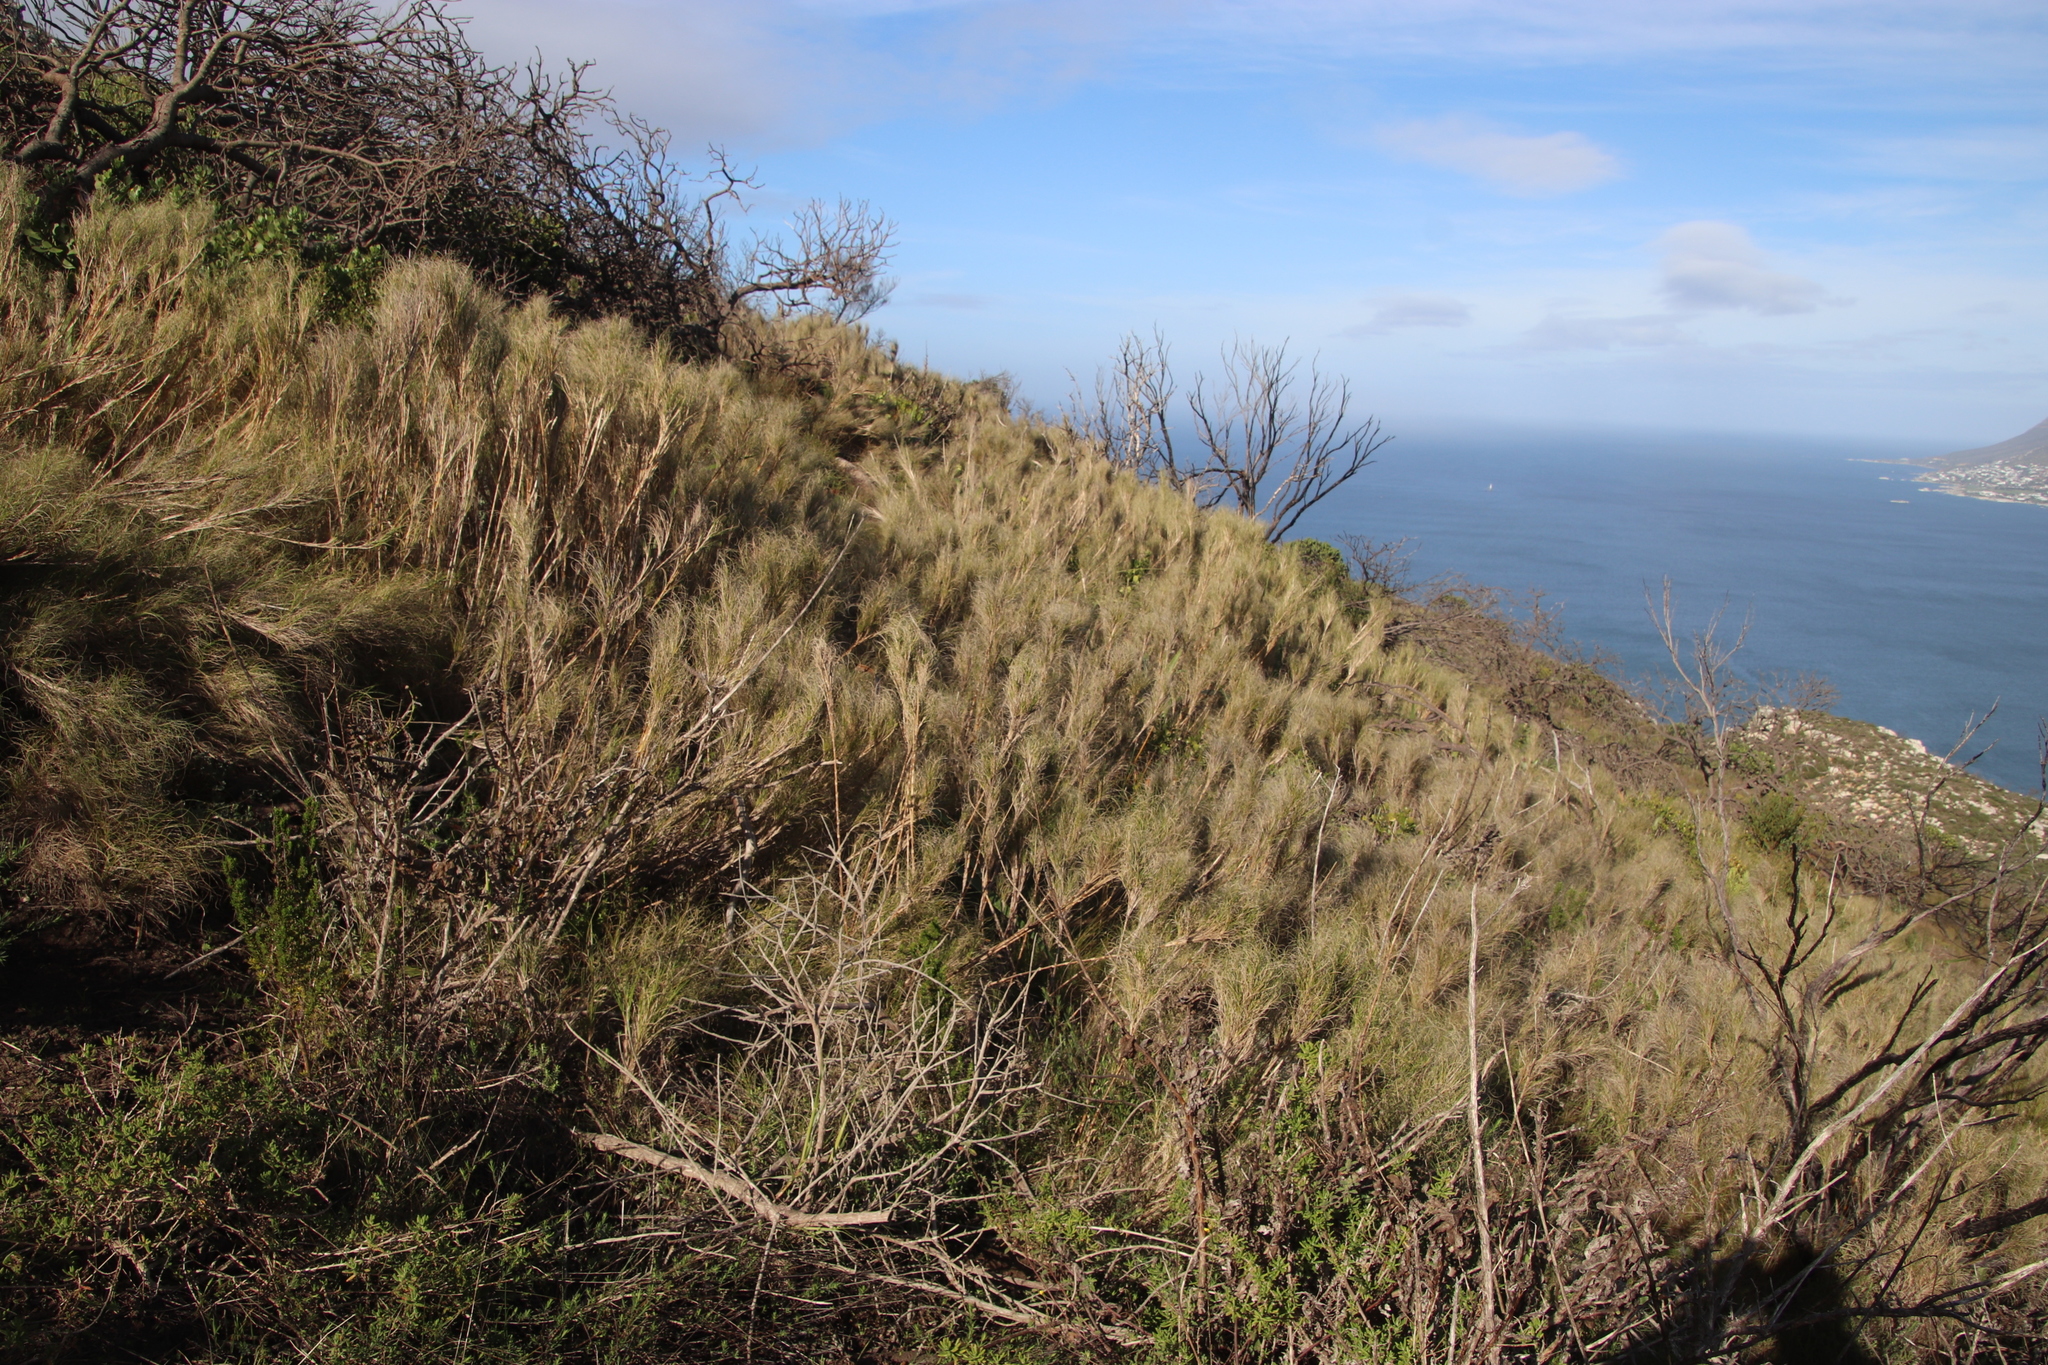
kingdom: Plantae
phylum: Tracheophyta
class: Liliopsida
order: Poales
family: Poaceae
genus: Pseudopentameris
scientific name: Pseudopentameris macrantha
